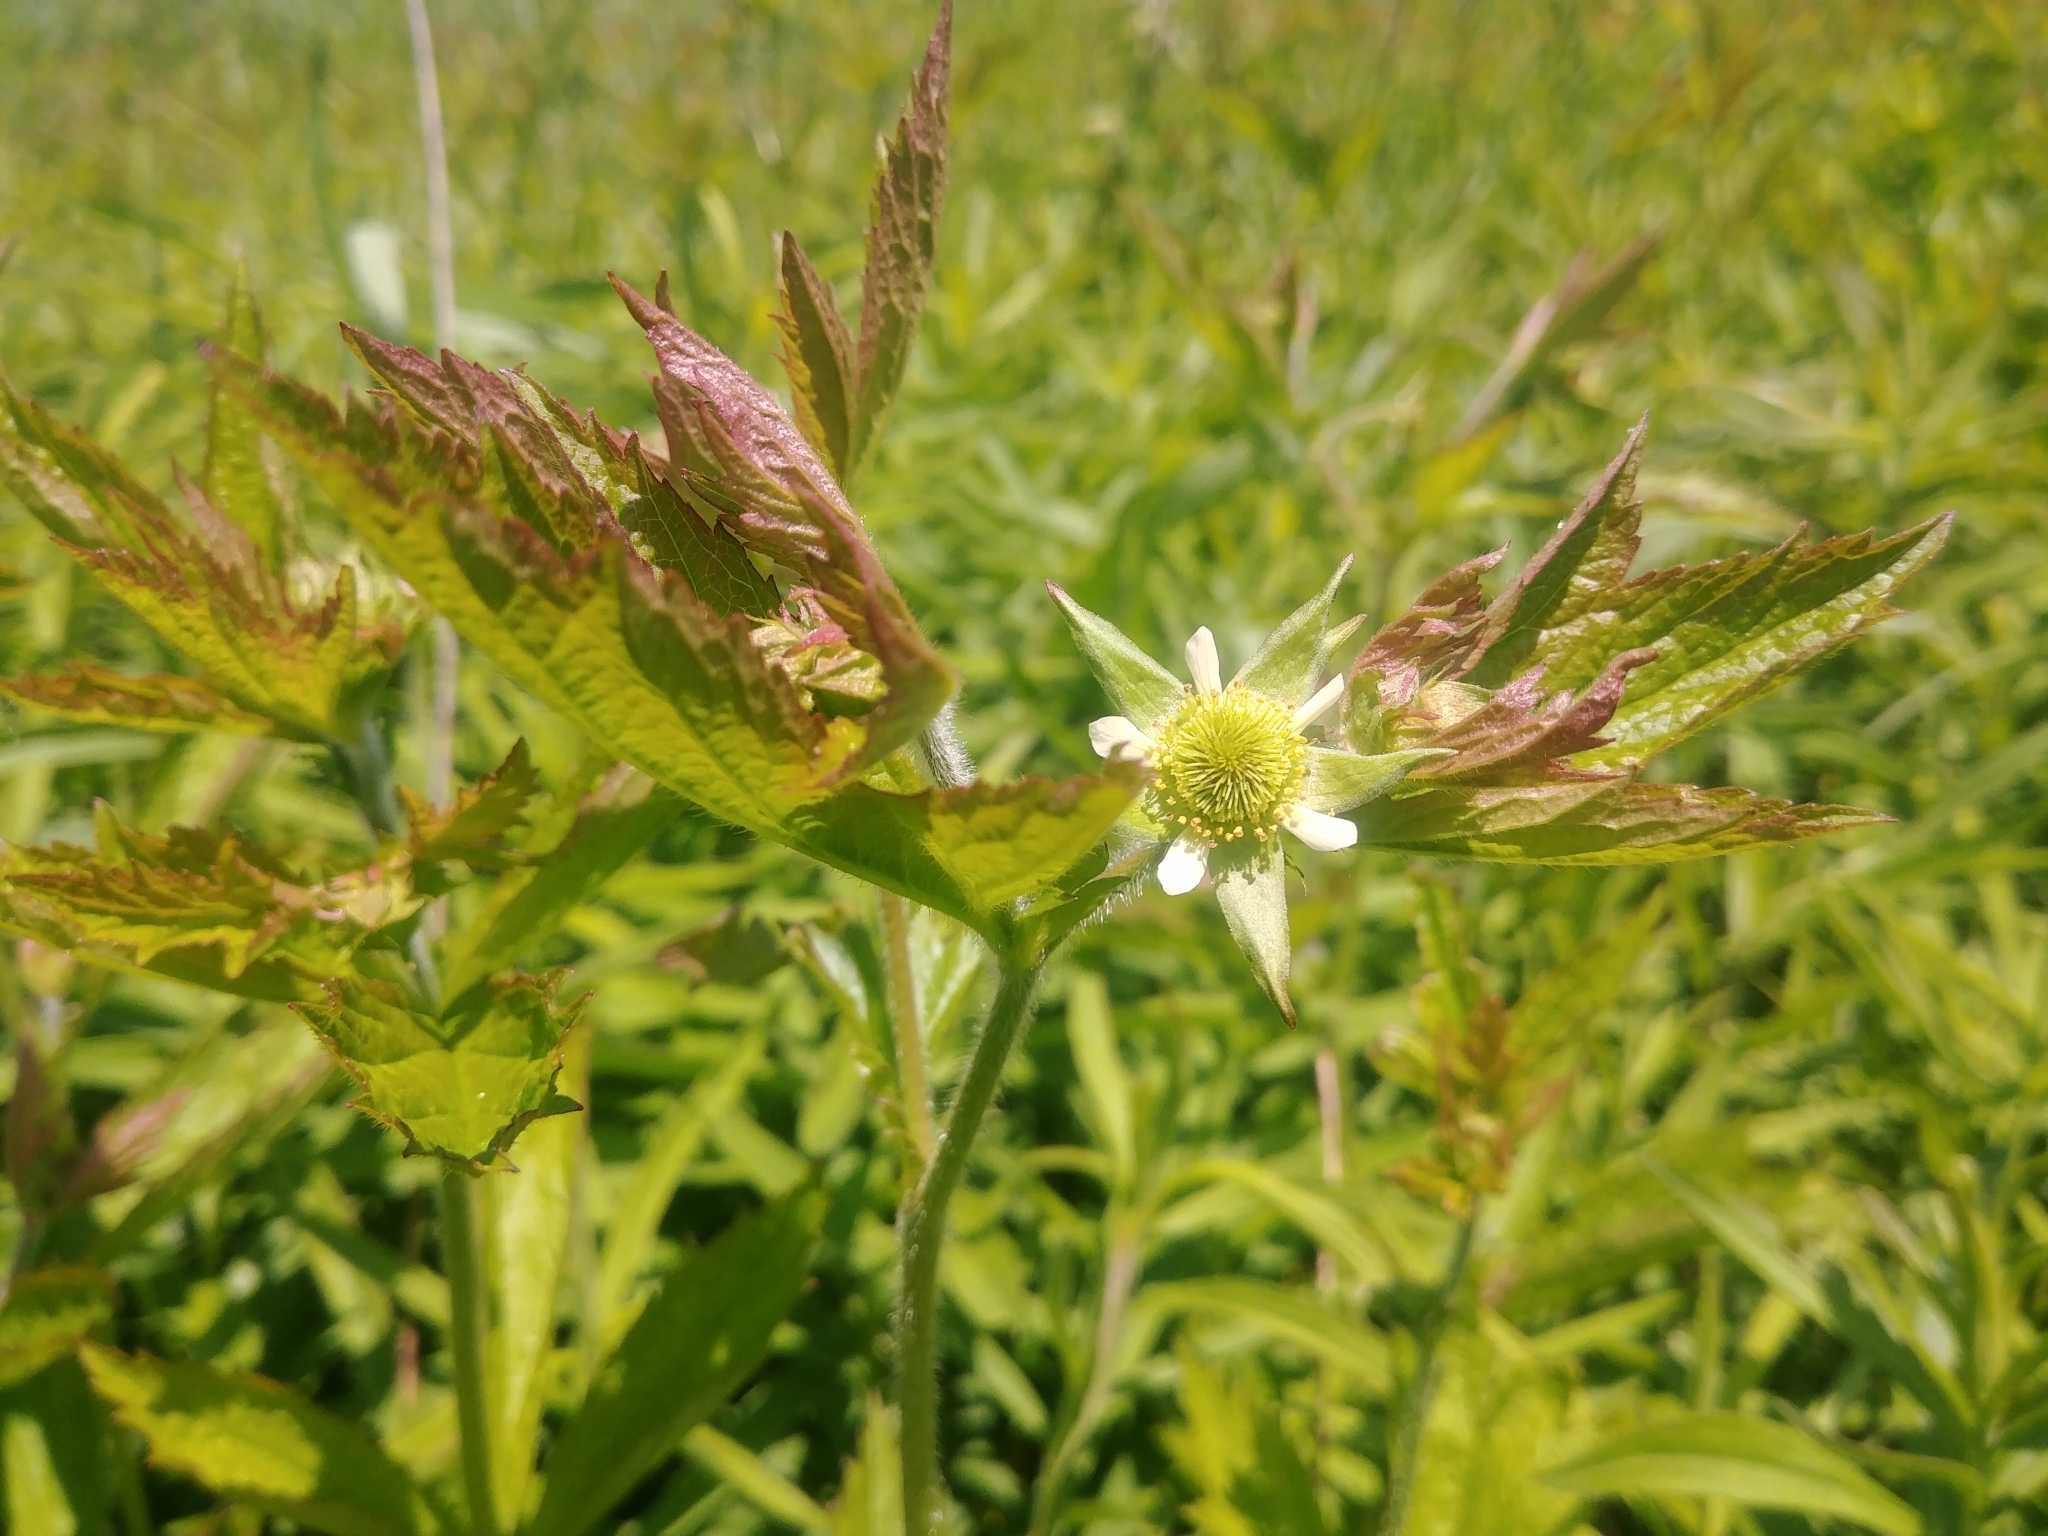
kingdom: Plantae
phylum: Tracheophyta
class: Magnoliopsida
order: Rosales
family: Rosaceae
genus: Geum
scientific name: Geum laciniatum
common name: Rough avens
